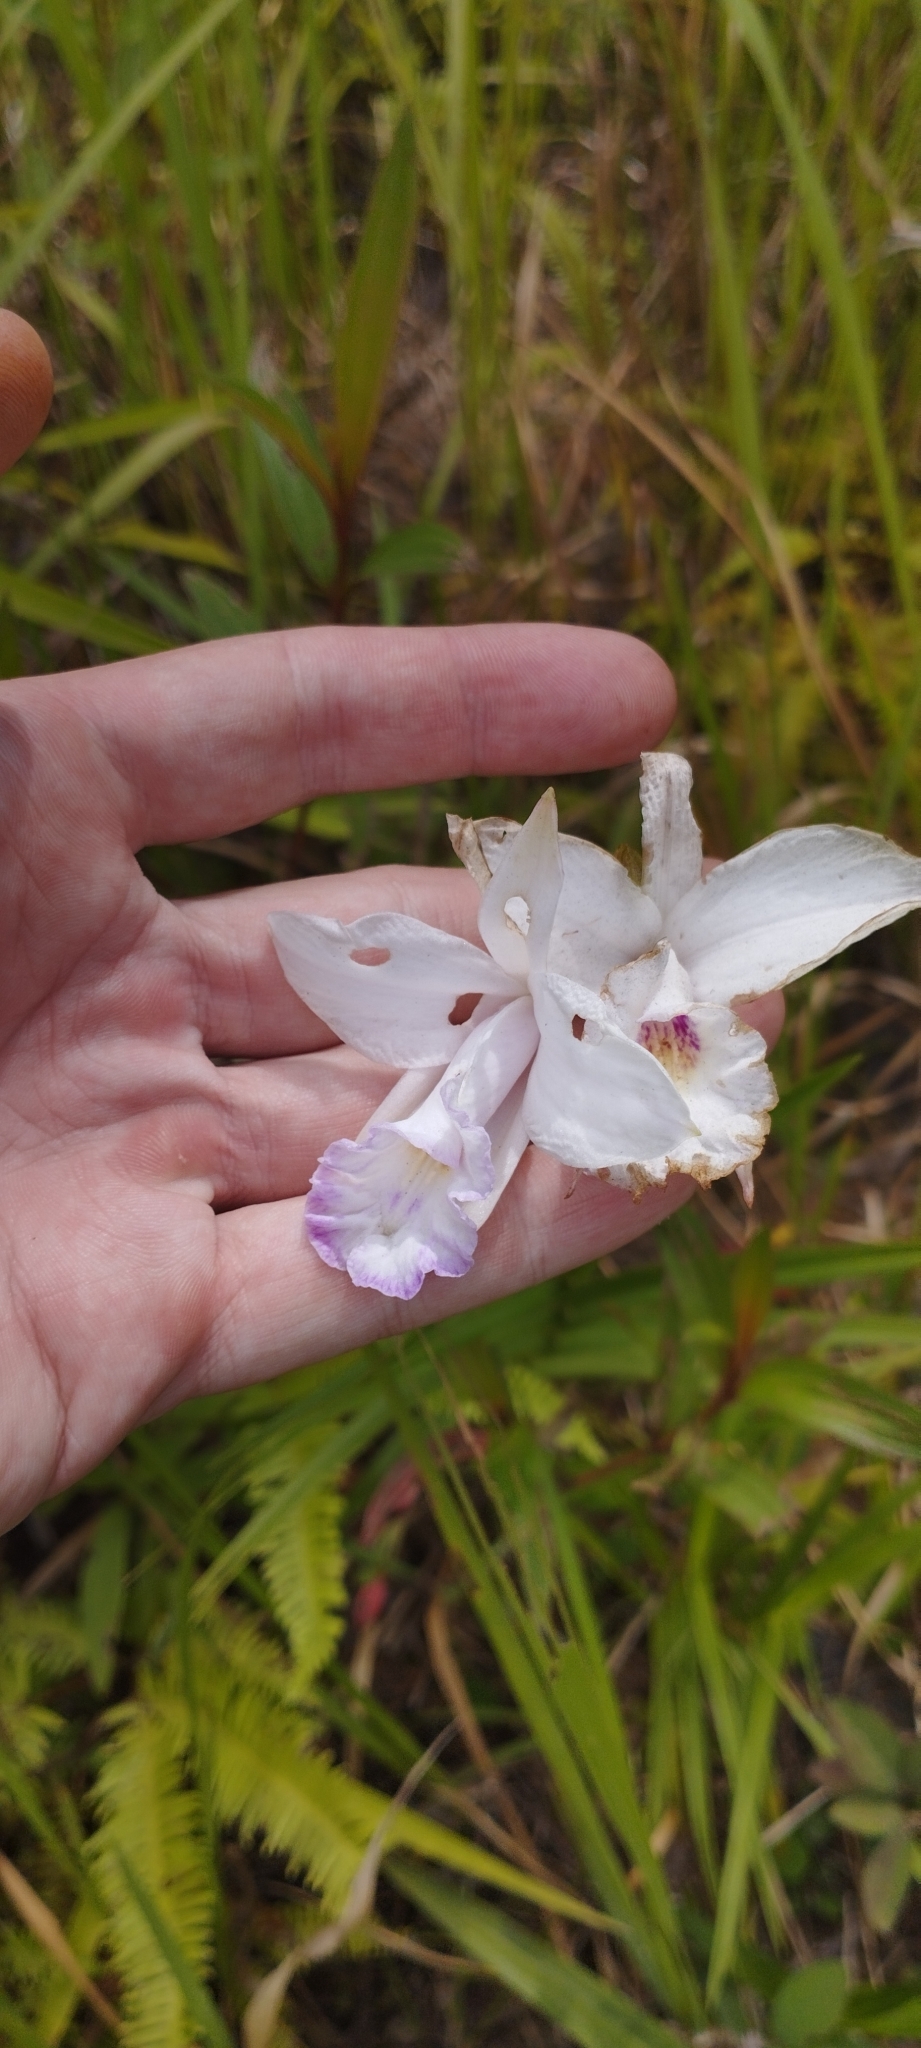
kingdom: Plantae
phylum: Tracheophyta
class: Liliopsida
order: Asparagales
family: Orchidaceae
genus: Arundina
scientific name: Arundina graminifolia
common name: Bamboo orchid
